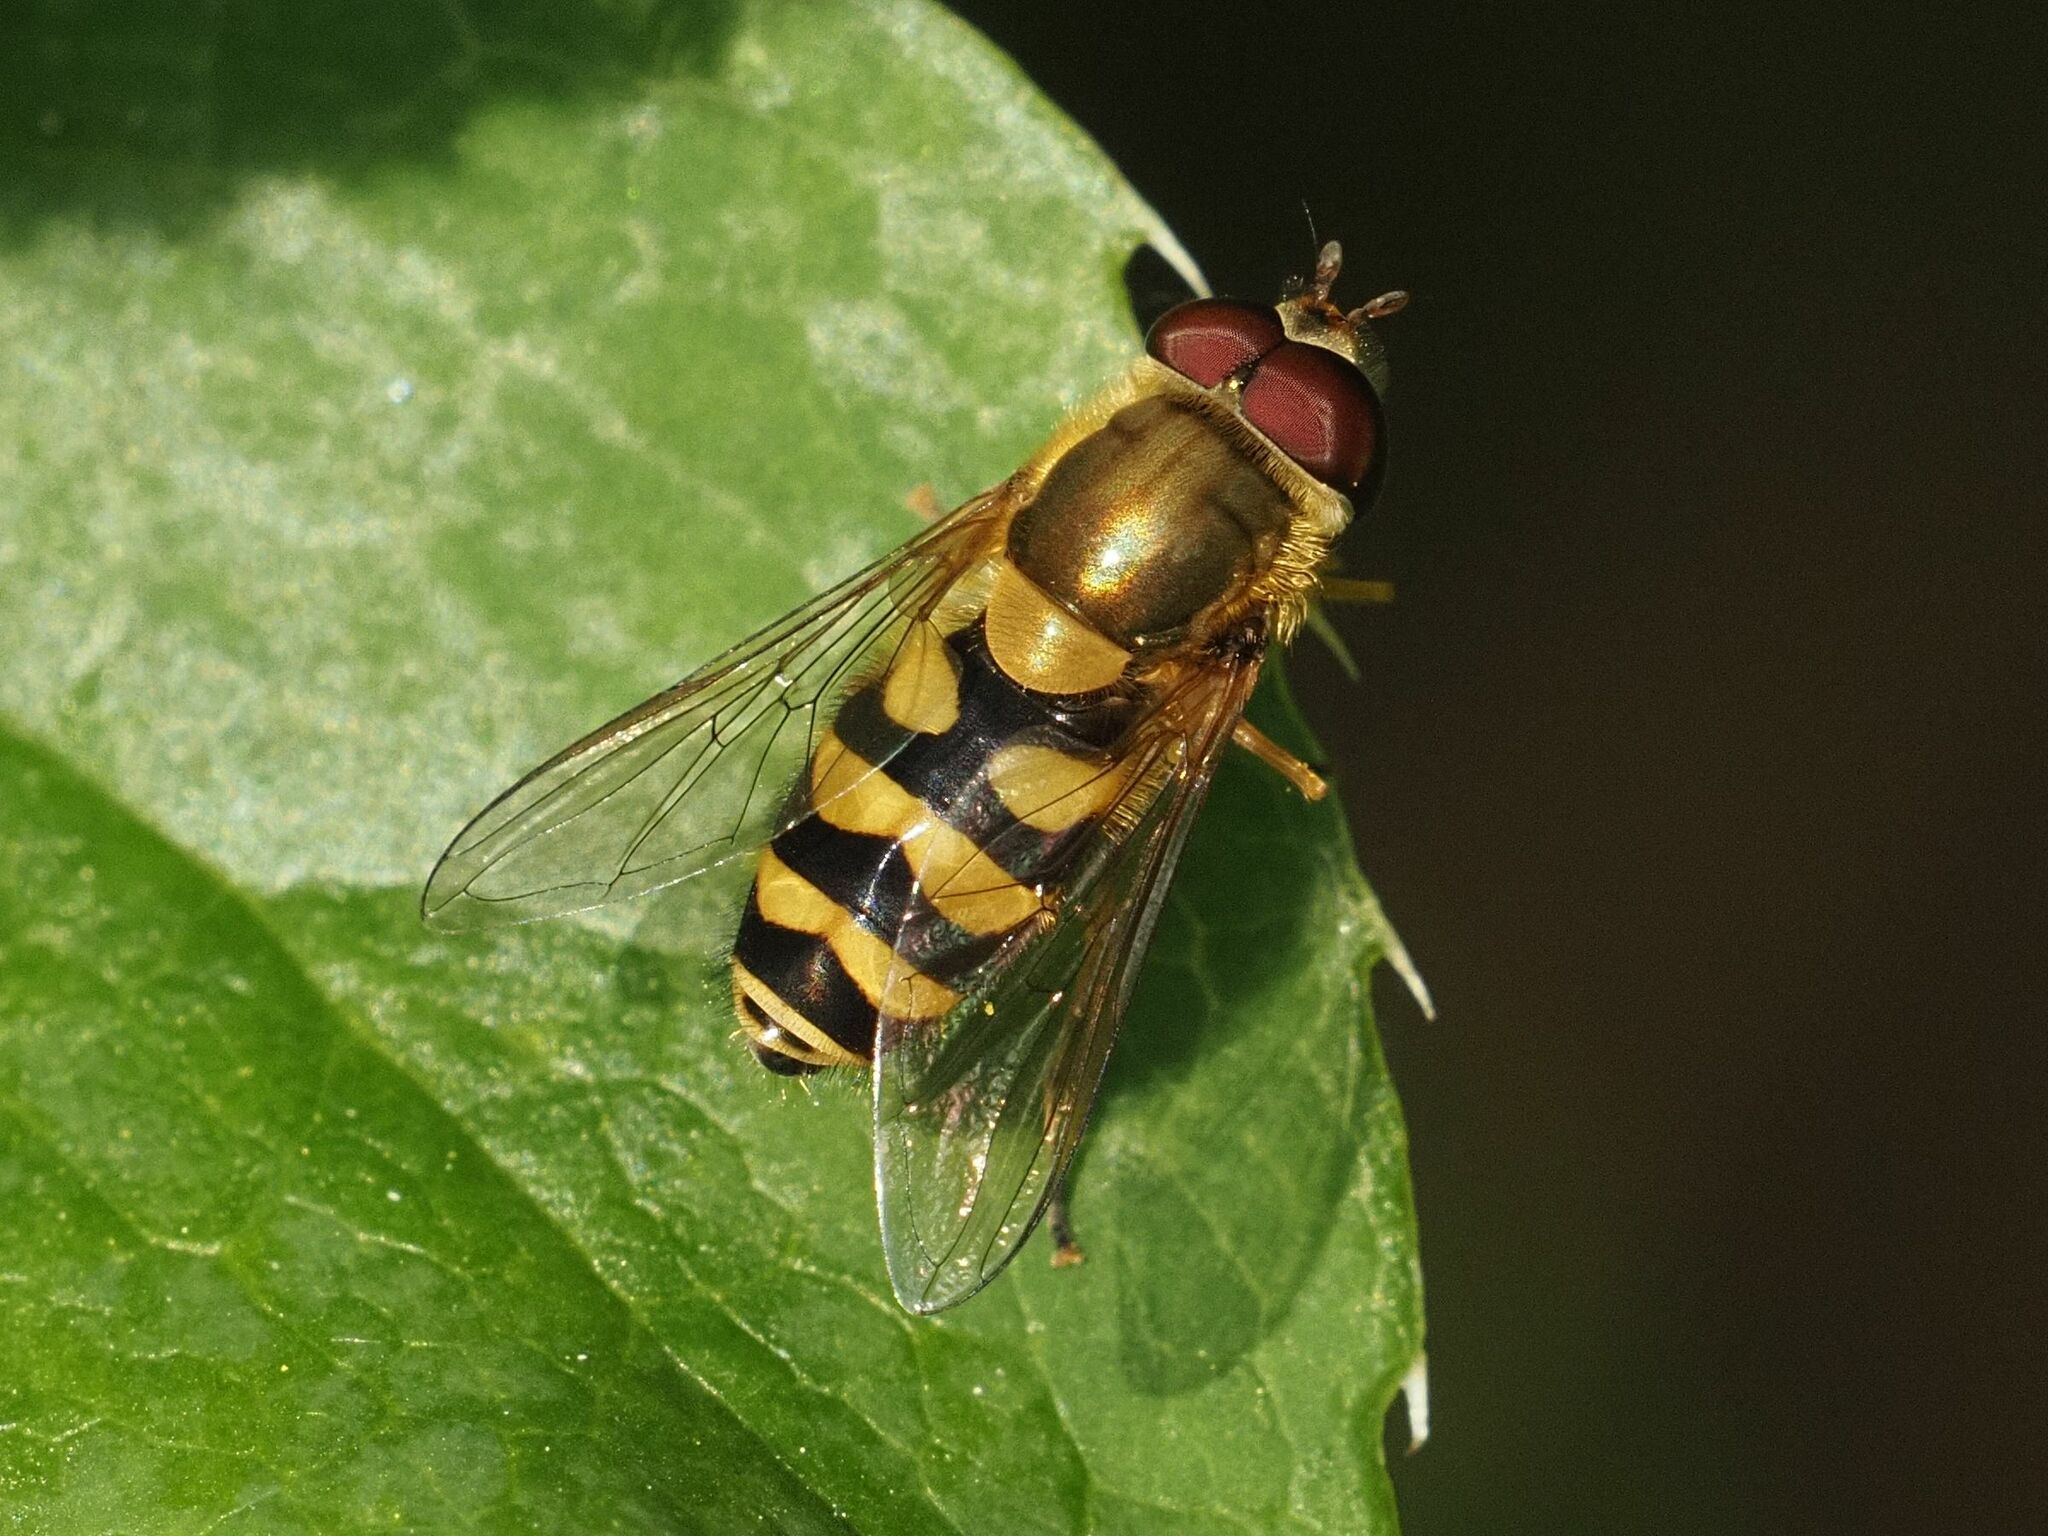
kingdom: Animalia
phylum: Arthropoda
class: Insecta
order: Diptera
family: Syrphidae
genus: Syrphus
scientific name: Syrphus
